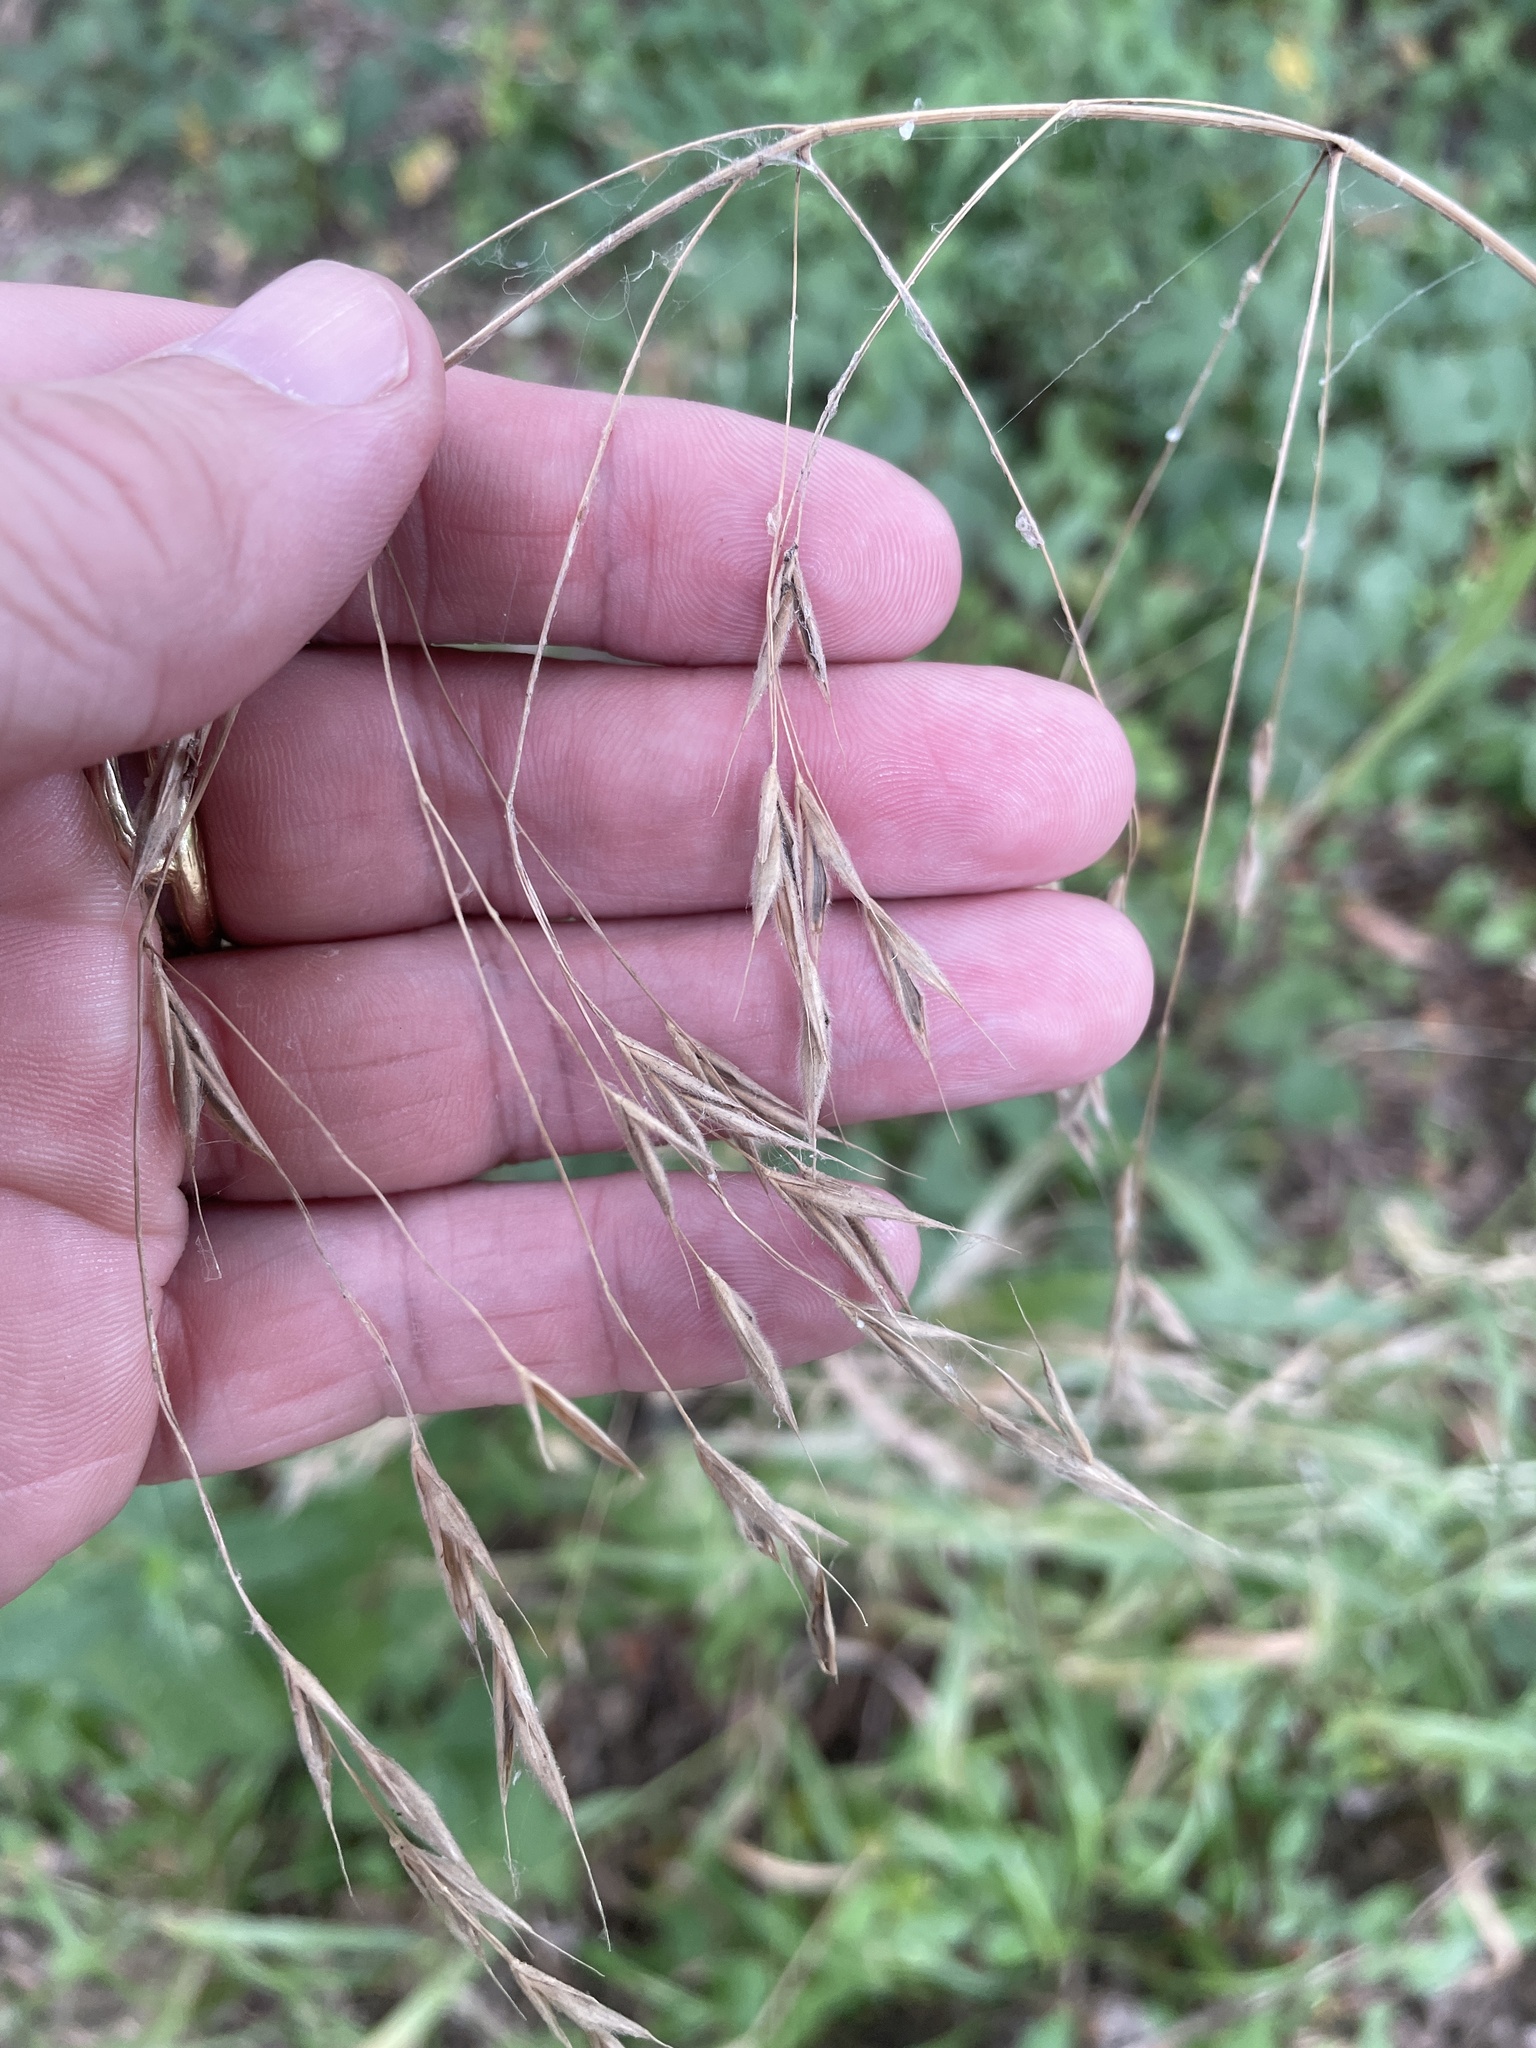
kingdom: Plantae
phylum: Tracheophyta
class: Liliopsida
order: Poales
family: Poaceae
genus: Bromus
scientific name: Bromus pubescens
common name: Hairy wood brome grass
